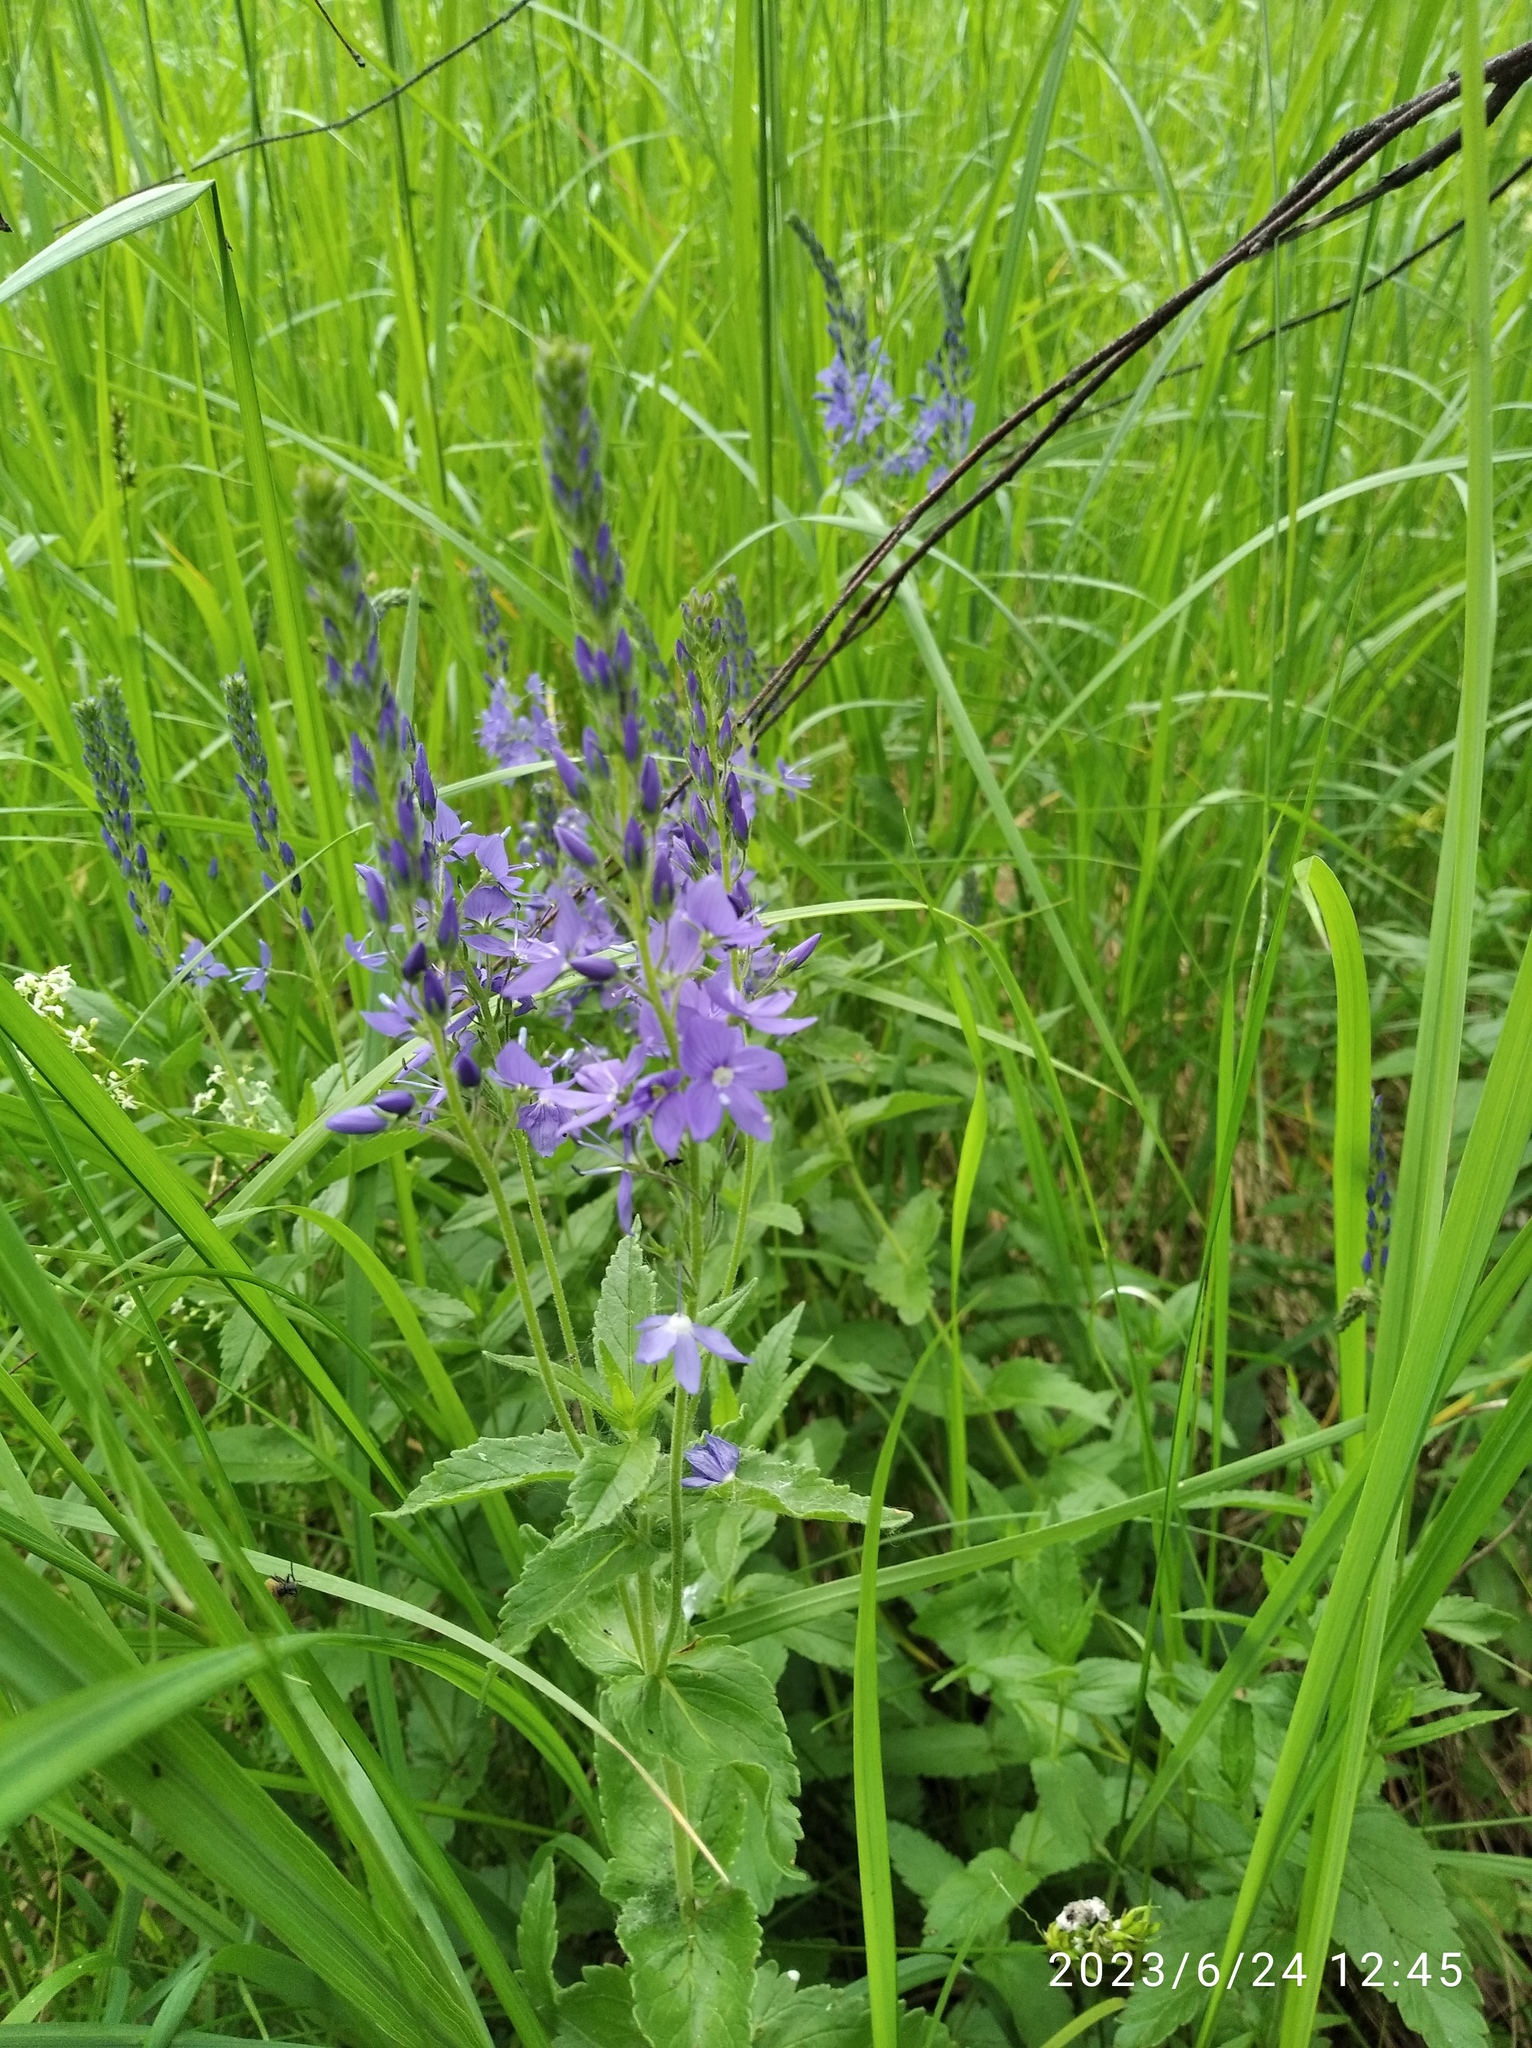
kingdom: Plantae
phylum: Tracheophyta
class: Magnoliopsida
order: Lamiales
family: Plantaginaceae
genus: Veronica
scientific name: Veronica teucrium
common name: Large speedwell
